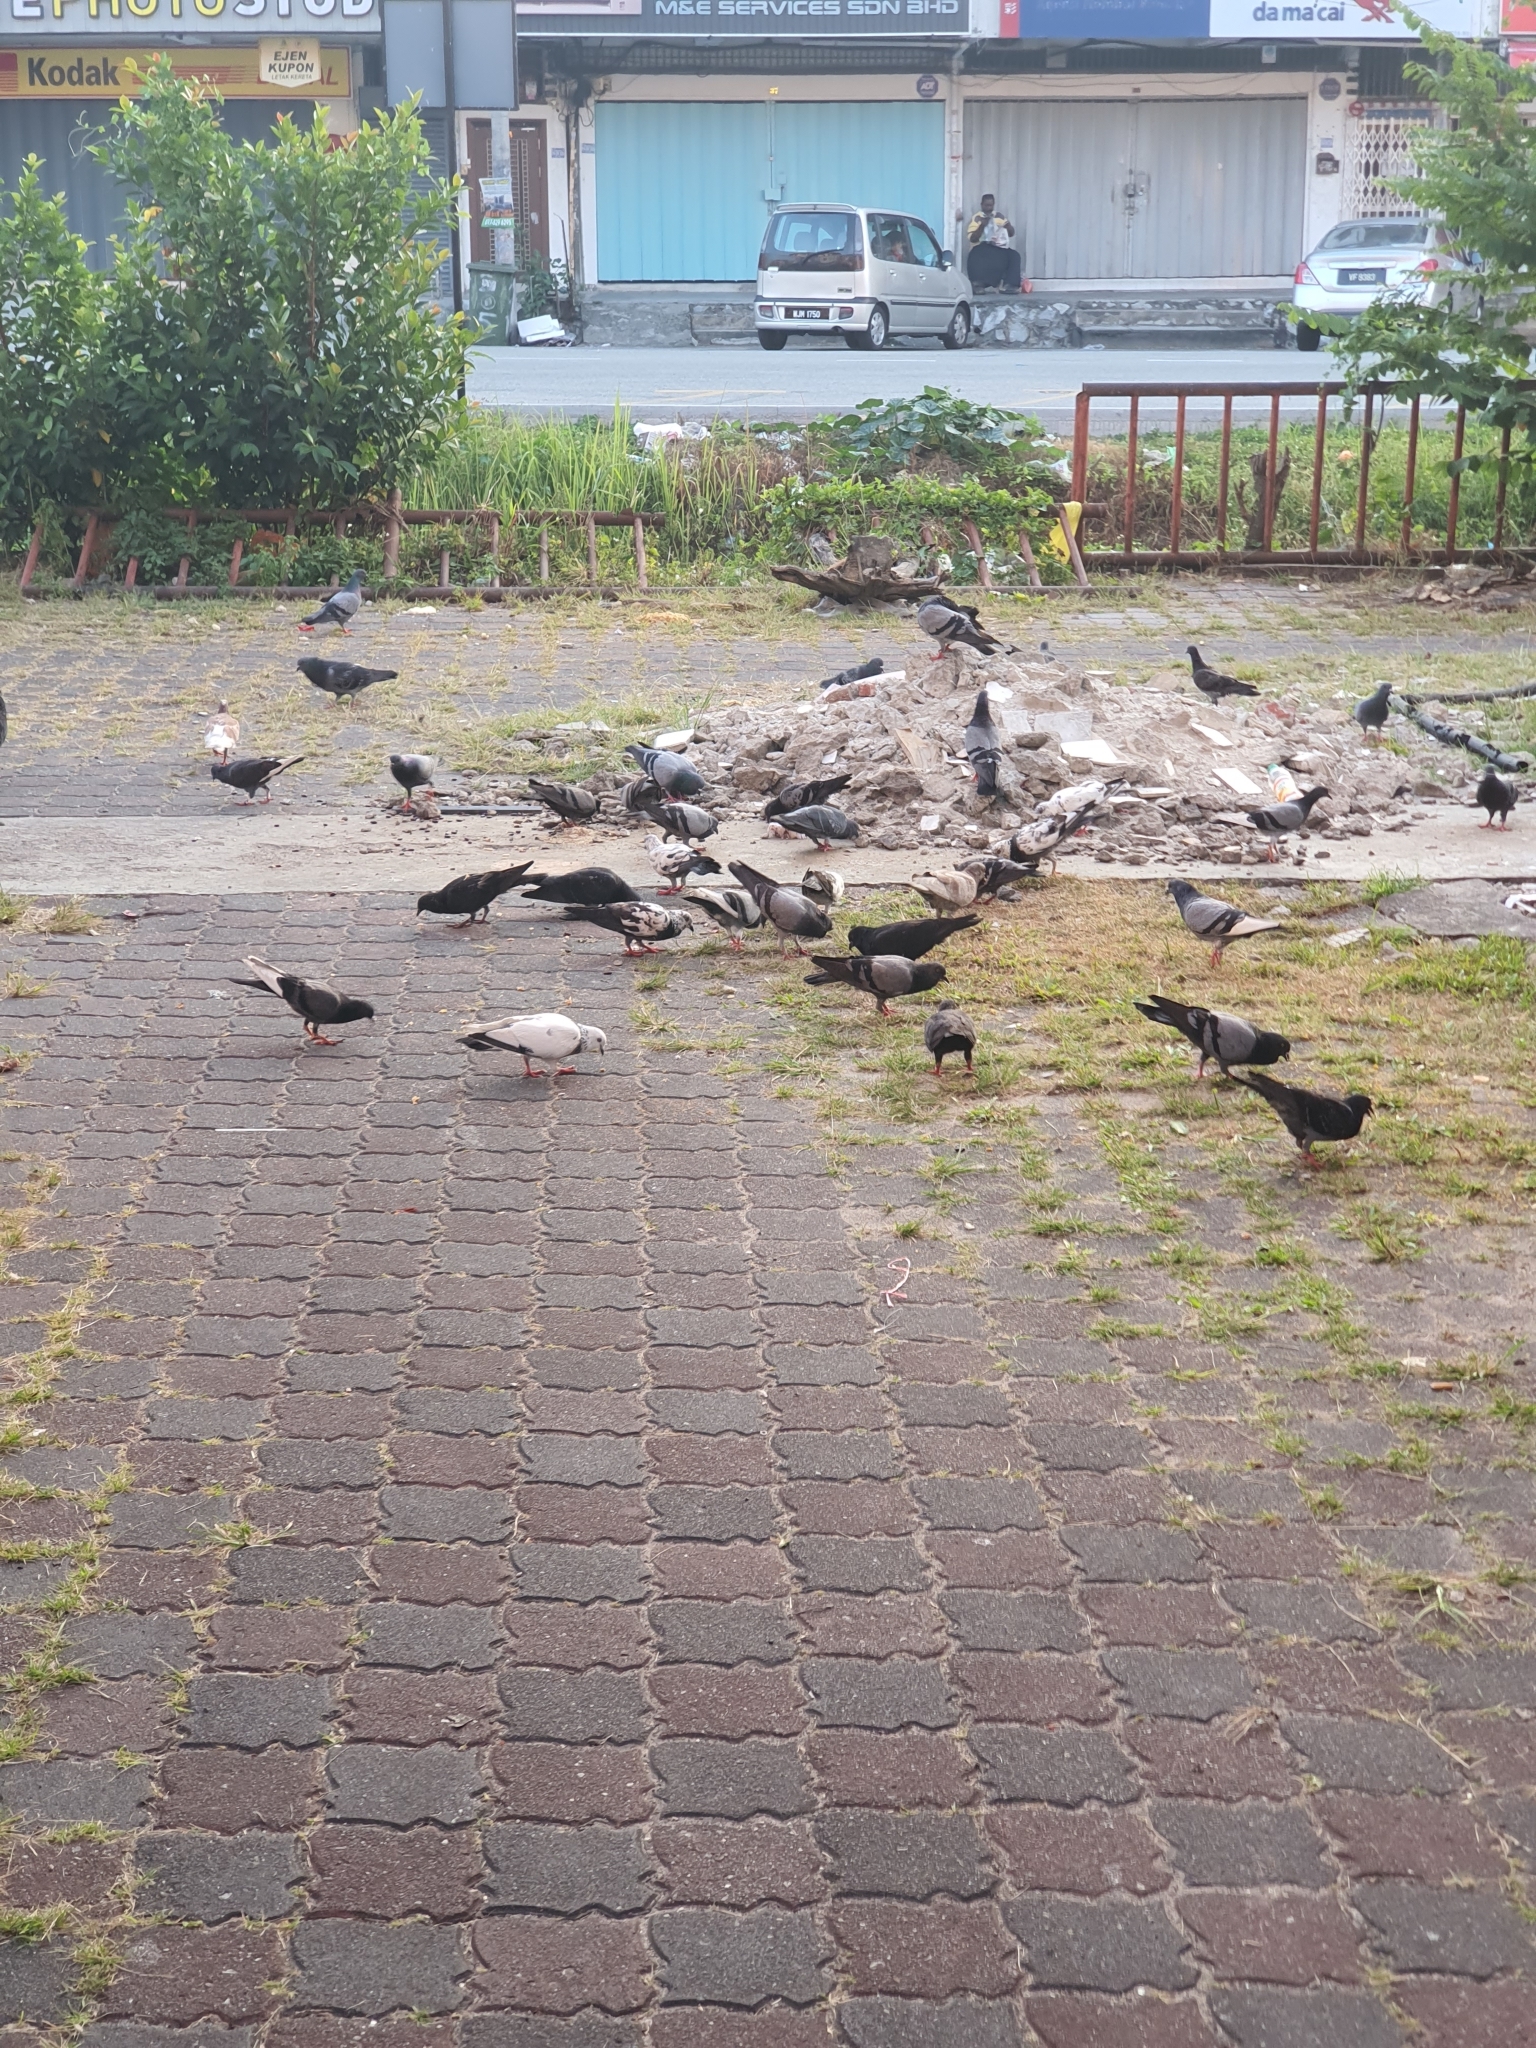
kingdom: Animalia
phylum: Chordata
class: Aves
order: Columbiformes
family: Columbidae
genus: Columba
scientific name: Columba livia
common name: Rock pigeon
